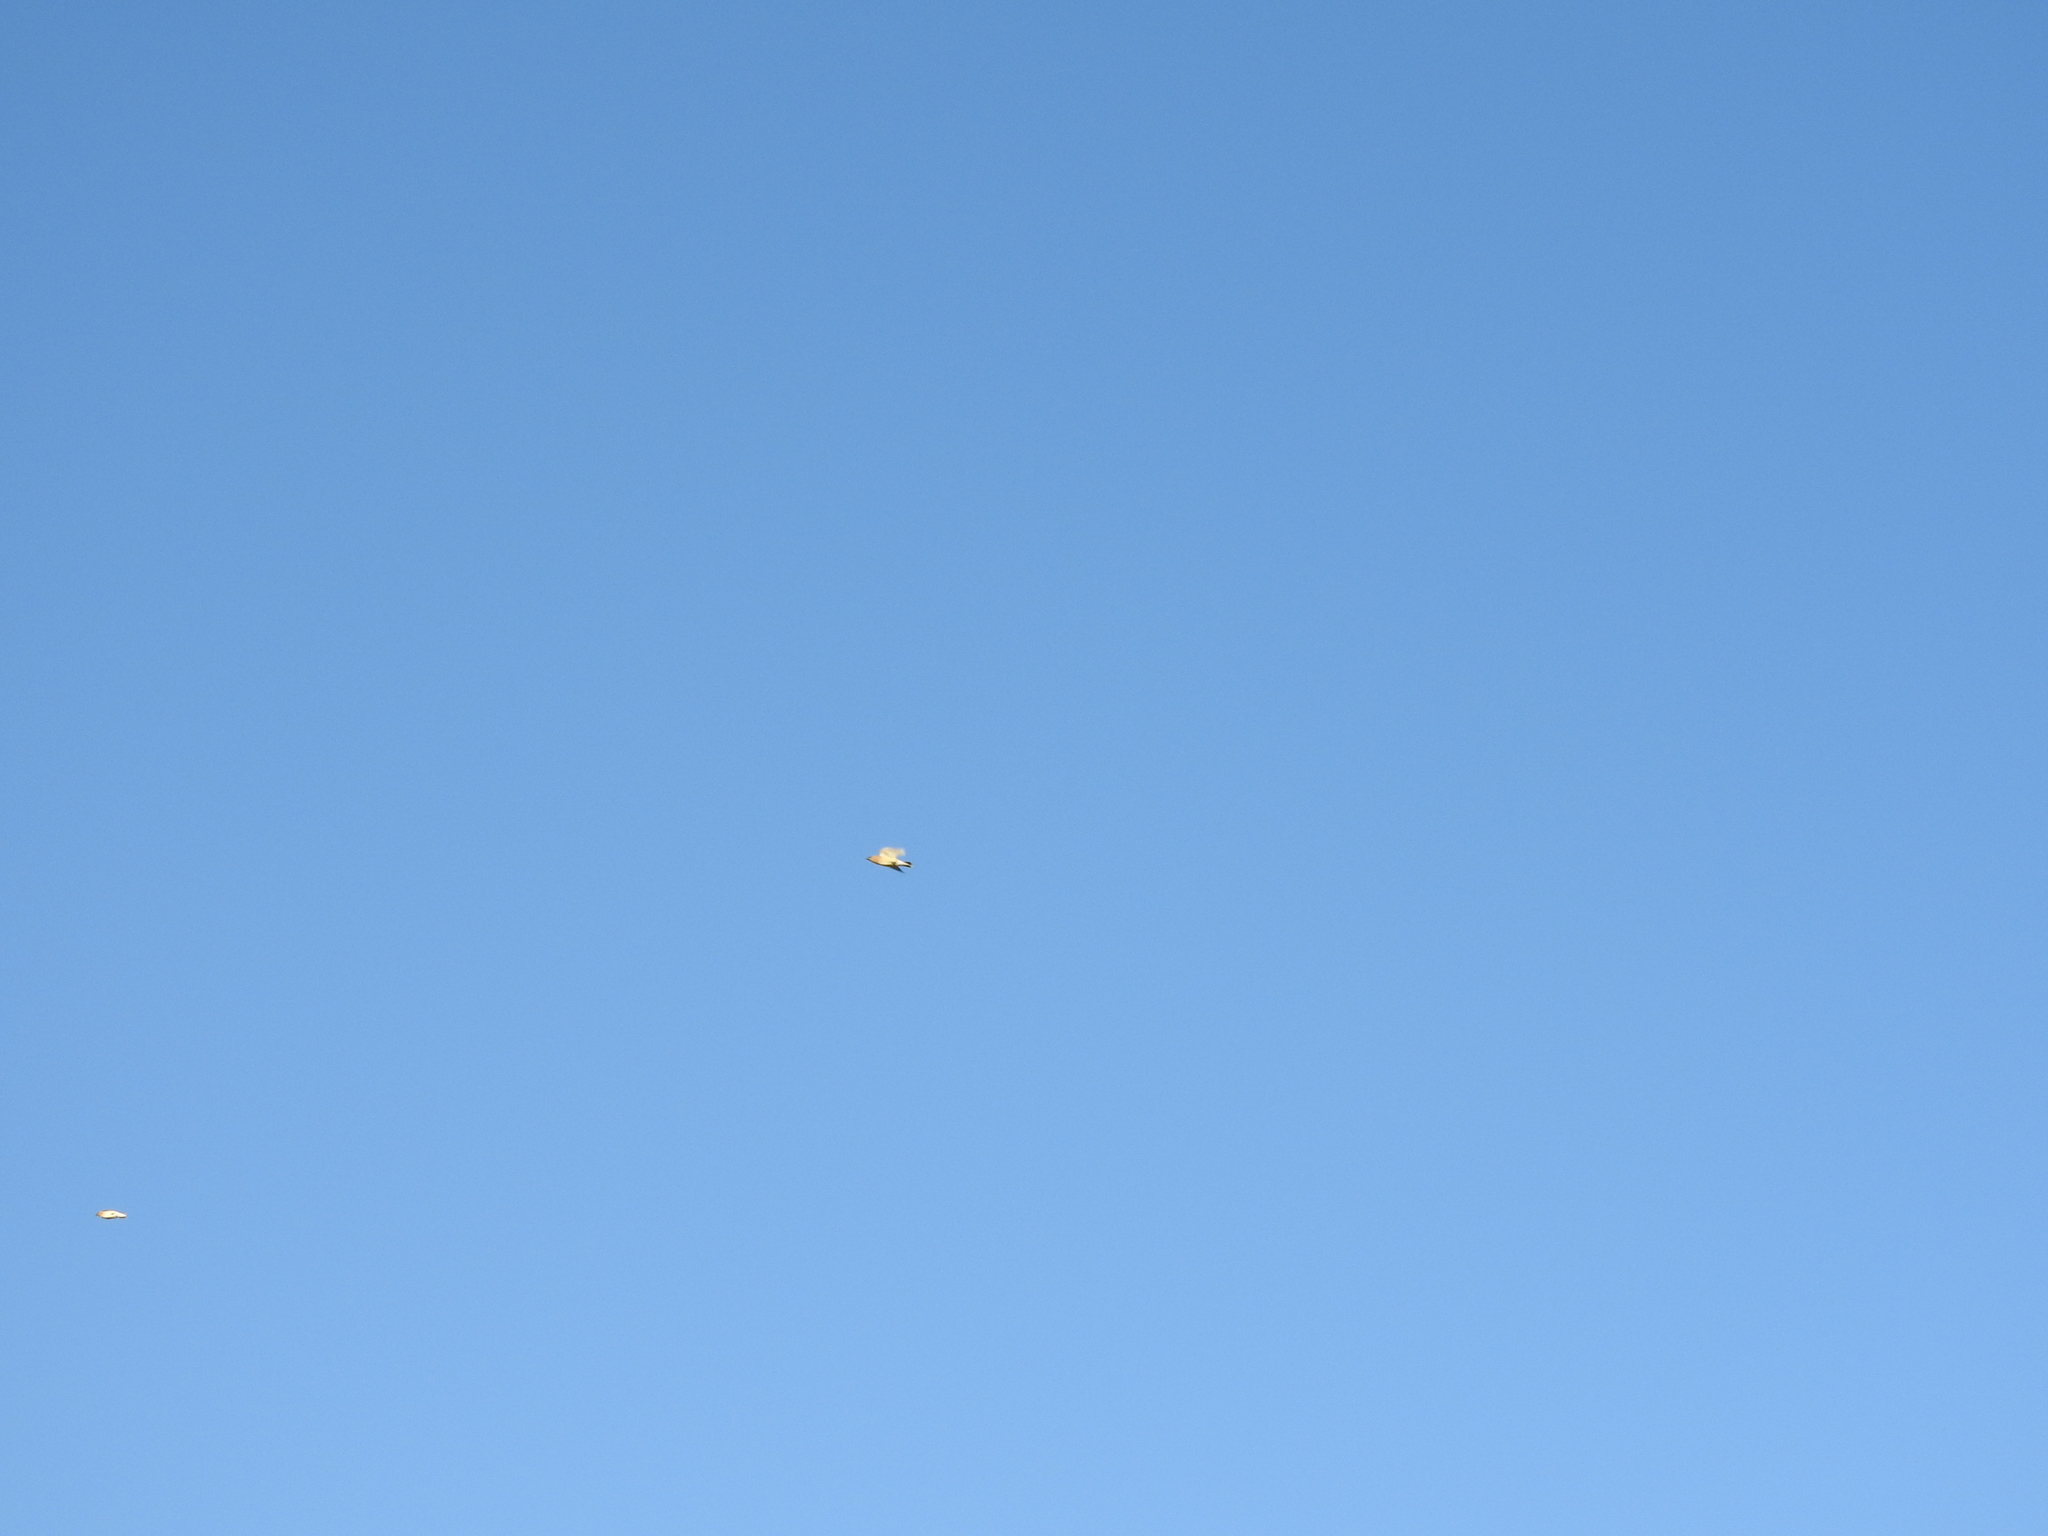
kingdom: Animalia
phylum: Chordata
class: Aves
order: Passeriformes
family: Bombycillidae
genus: Bombycilla
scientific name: Bombycilla cedrorum
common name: Cedar waxwing
